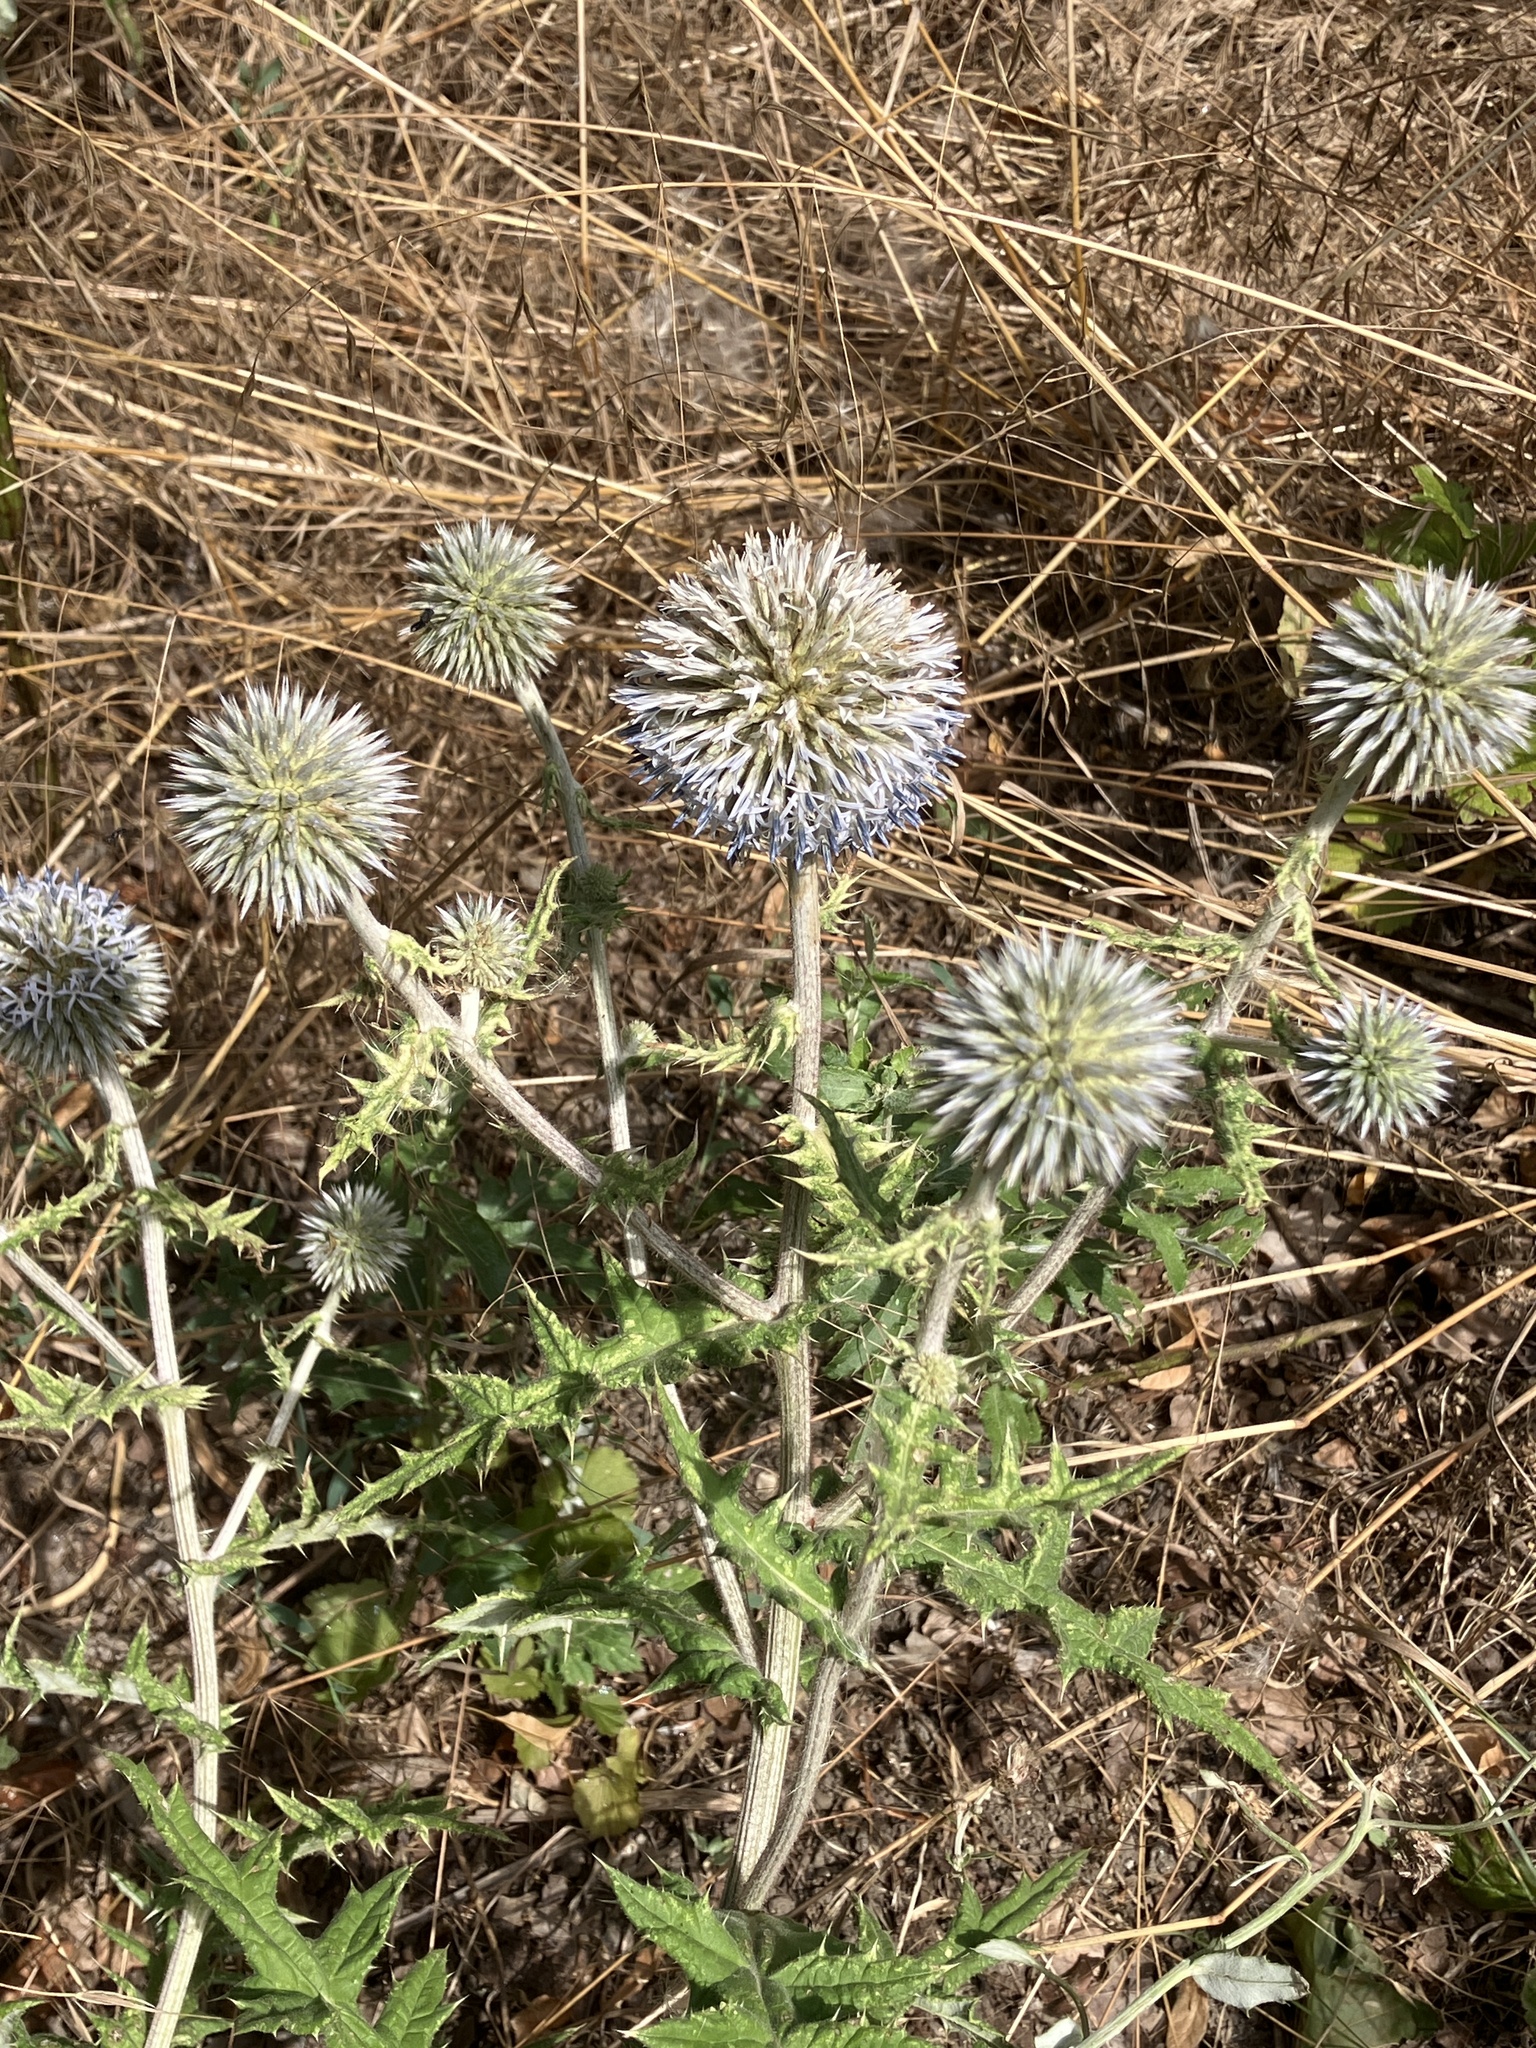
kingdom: Plantae
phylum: Tracheophyta
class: Magnoliopsida
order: Asterales
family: Asteraceae
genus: Echinops
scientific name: Echinops sphaerocephalus
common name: Glandular globe-thistle
